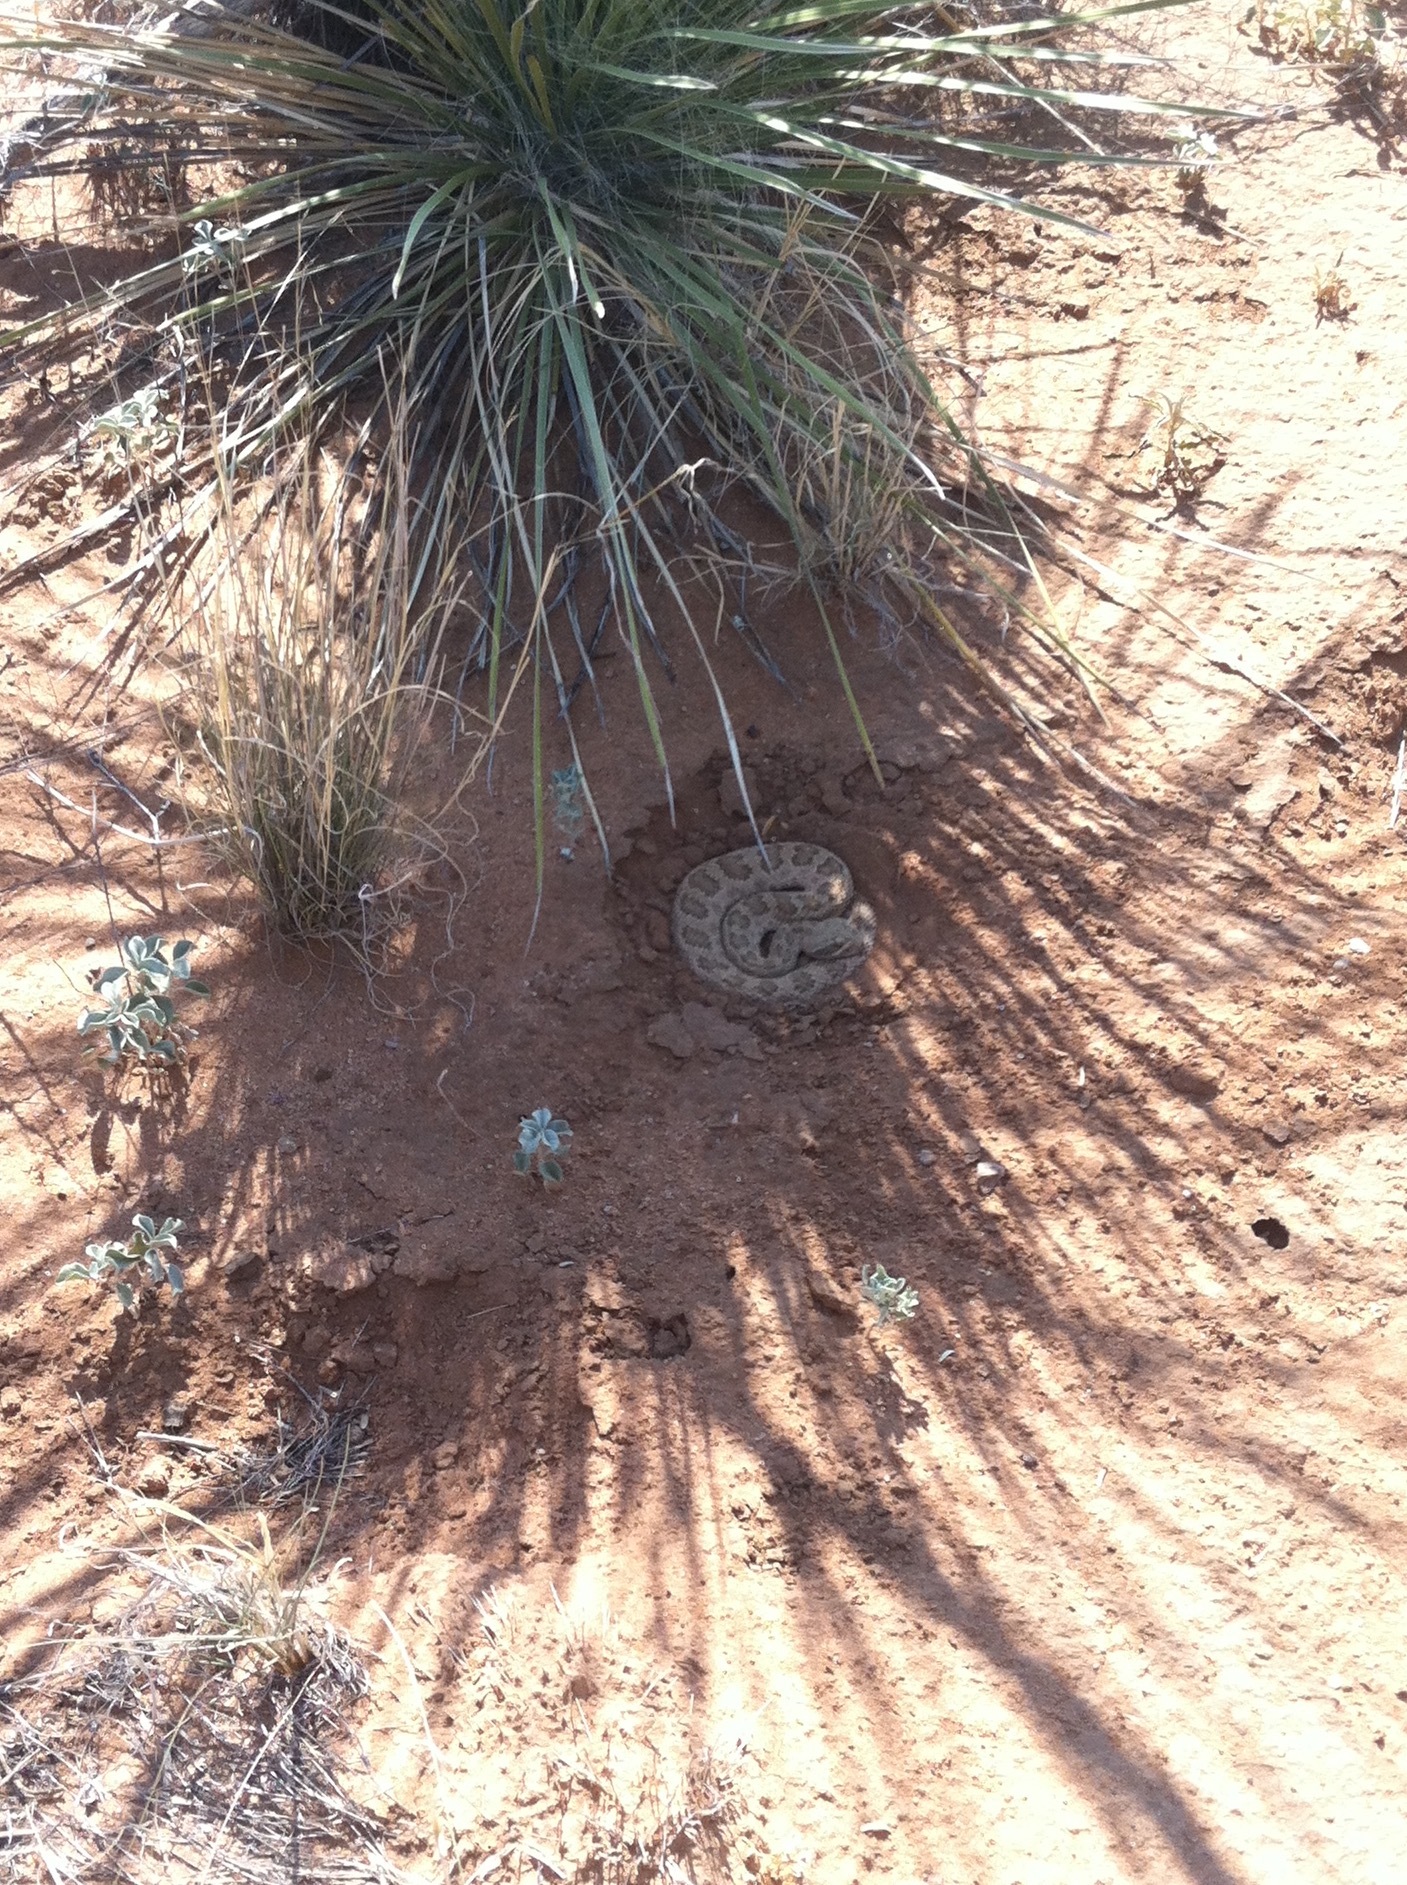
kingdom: Animalia
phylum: Chordata
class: Squamata
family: Viperidae
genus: Crotalus
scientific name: Crotalus viridis
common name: Prairie rattlesnake
